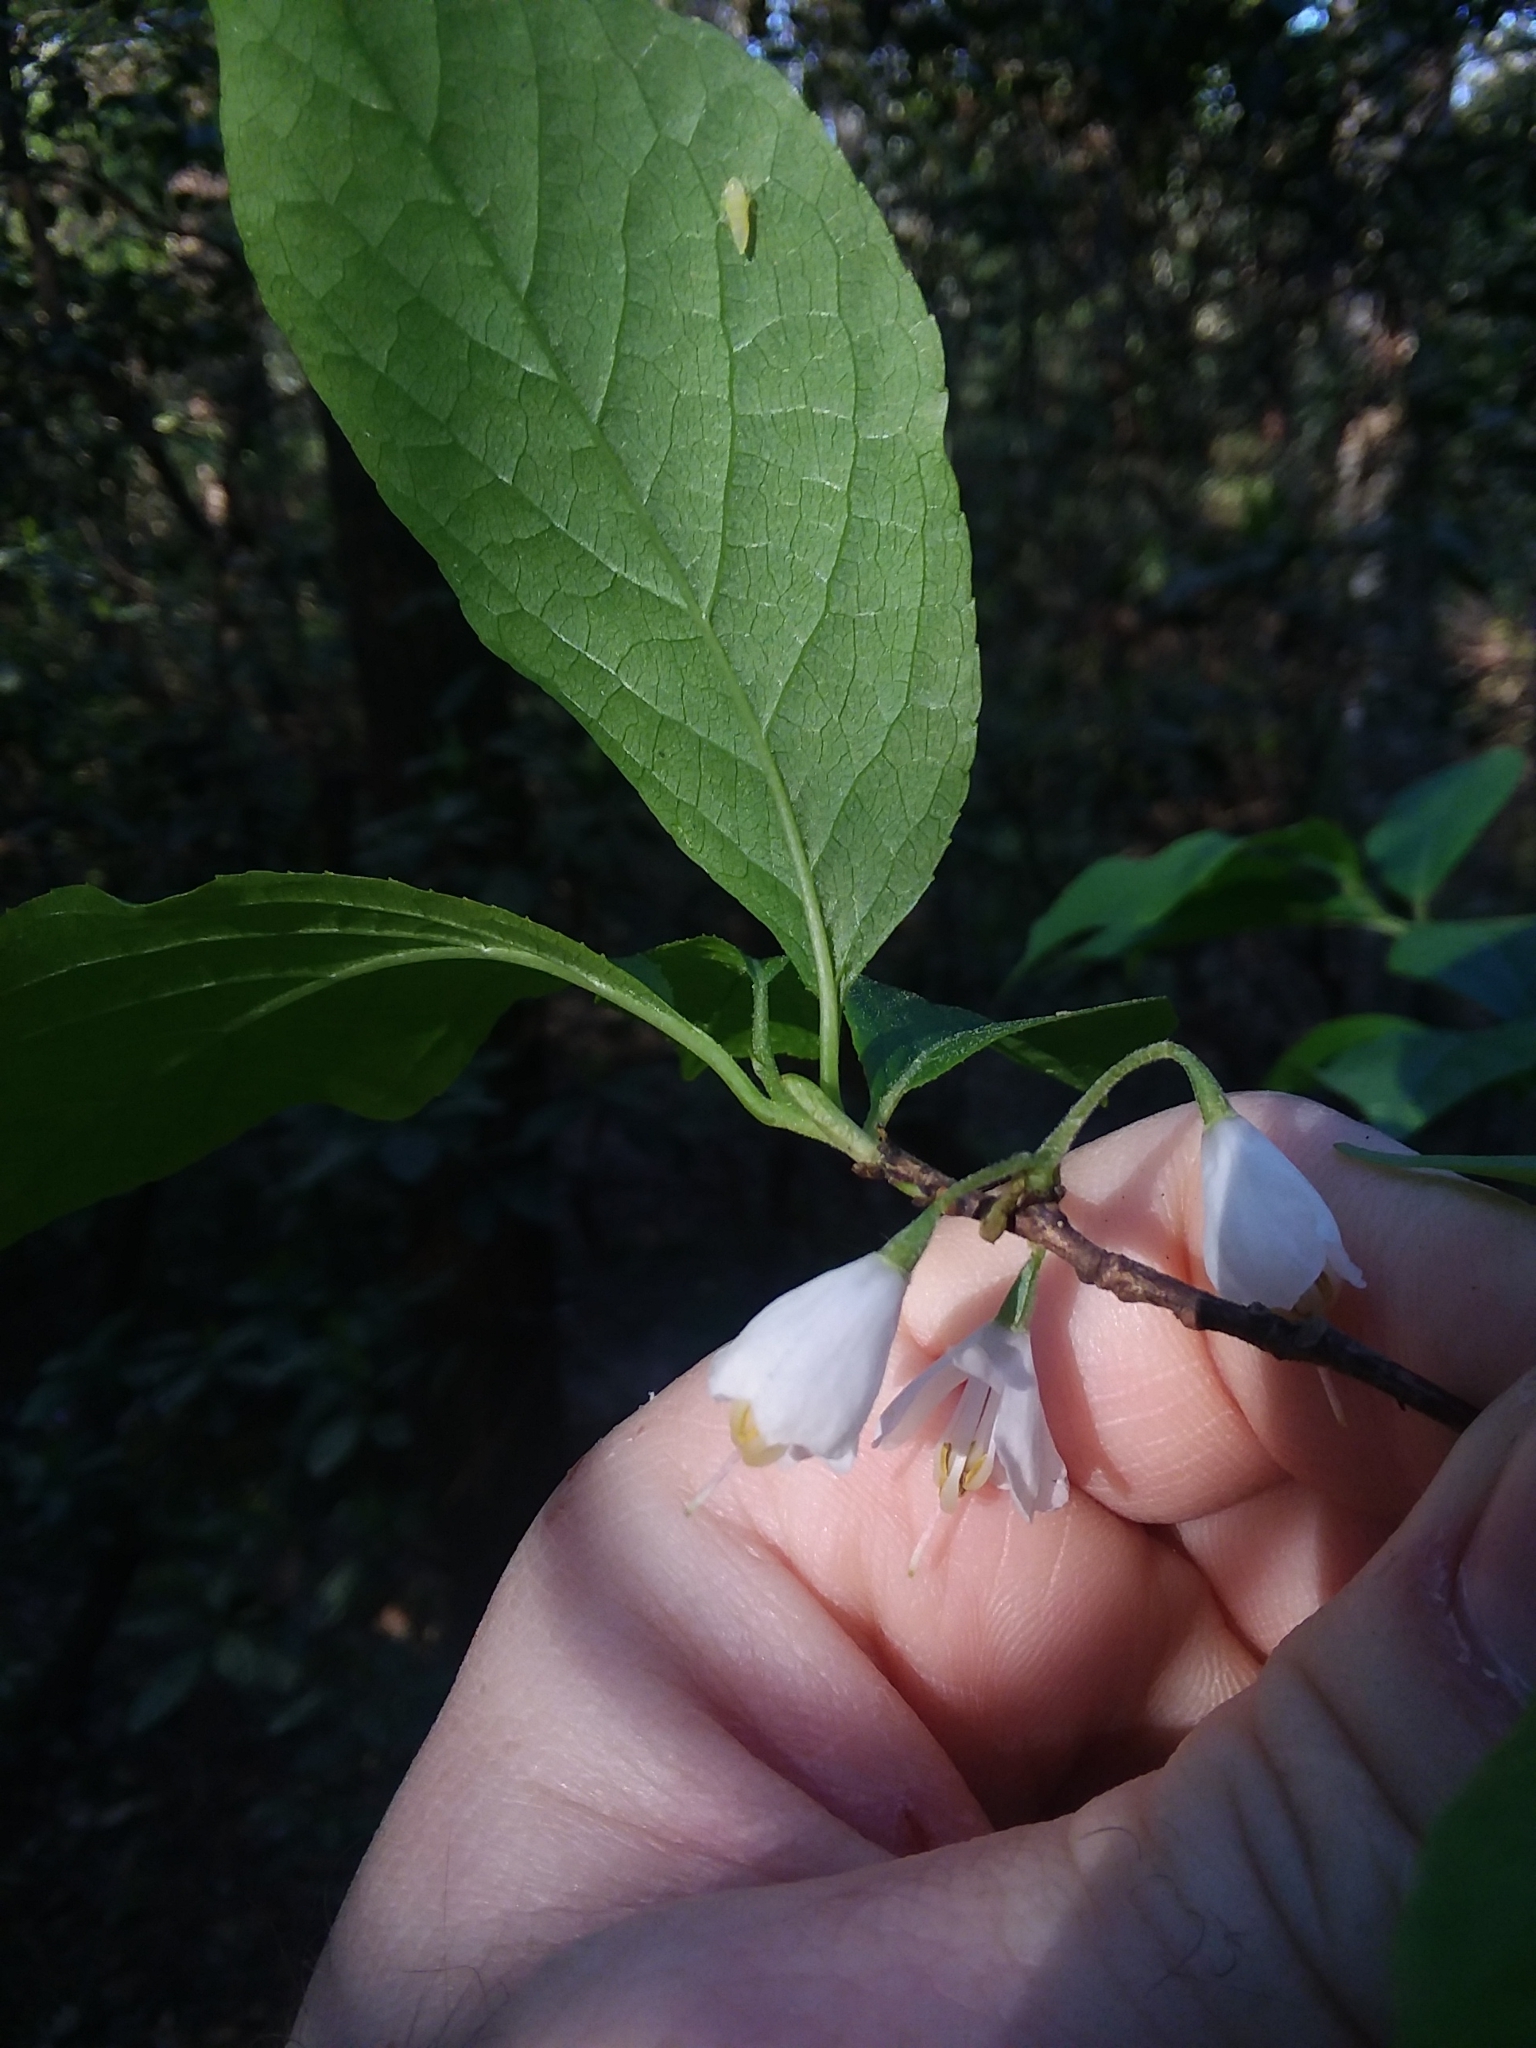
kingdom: Plantae
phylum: Tracheophyta
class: Magnoliopsida
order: Ericales
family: Styracaceae
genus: Halesia
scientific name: Halesia carolina
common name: Carolina silverbell
